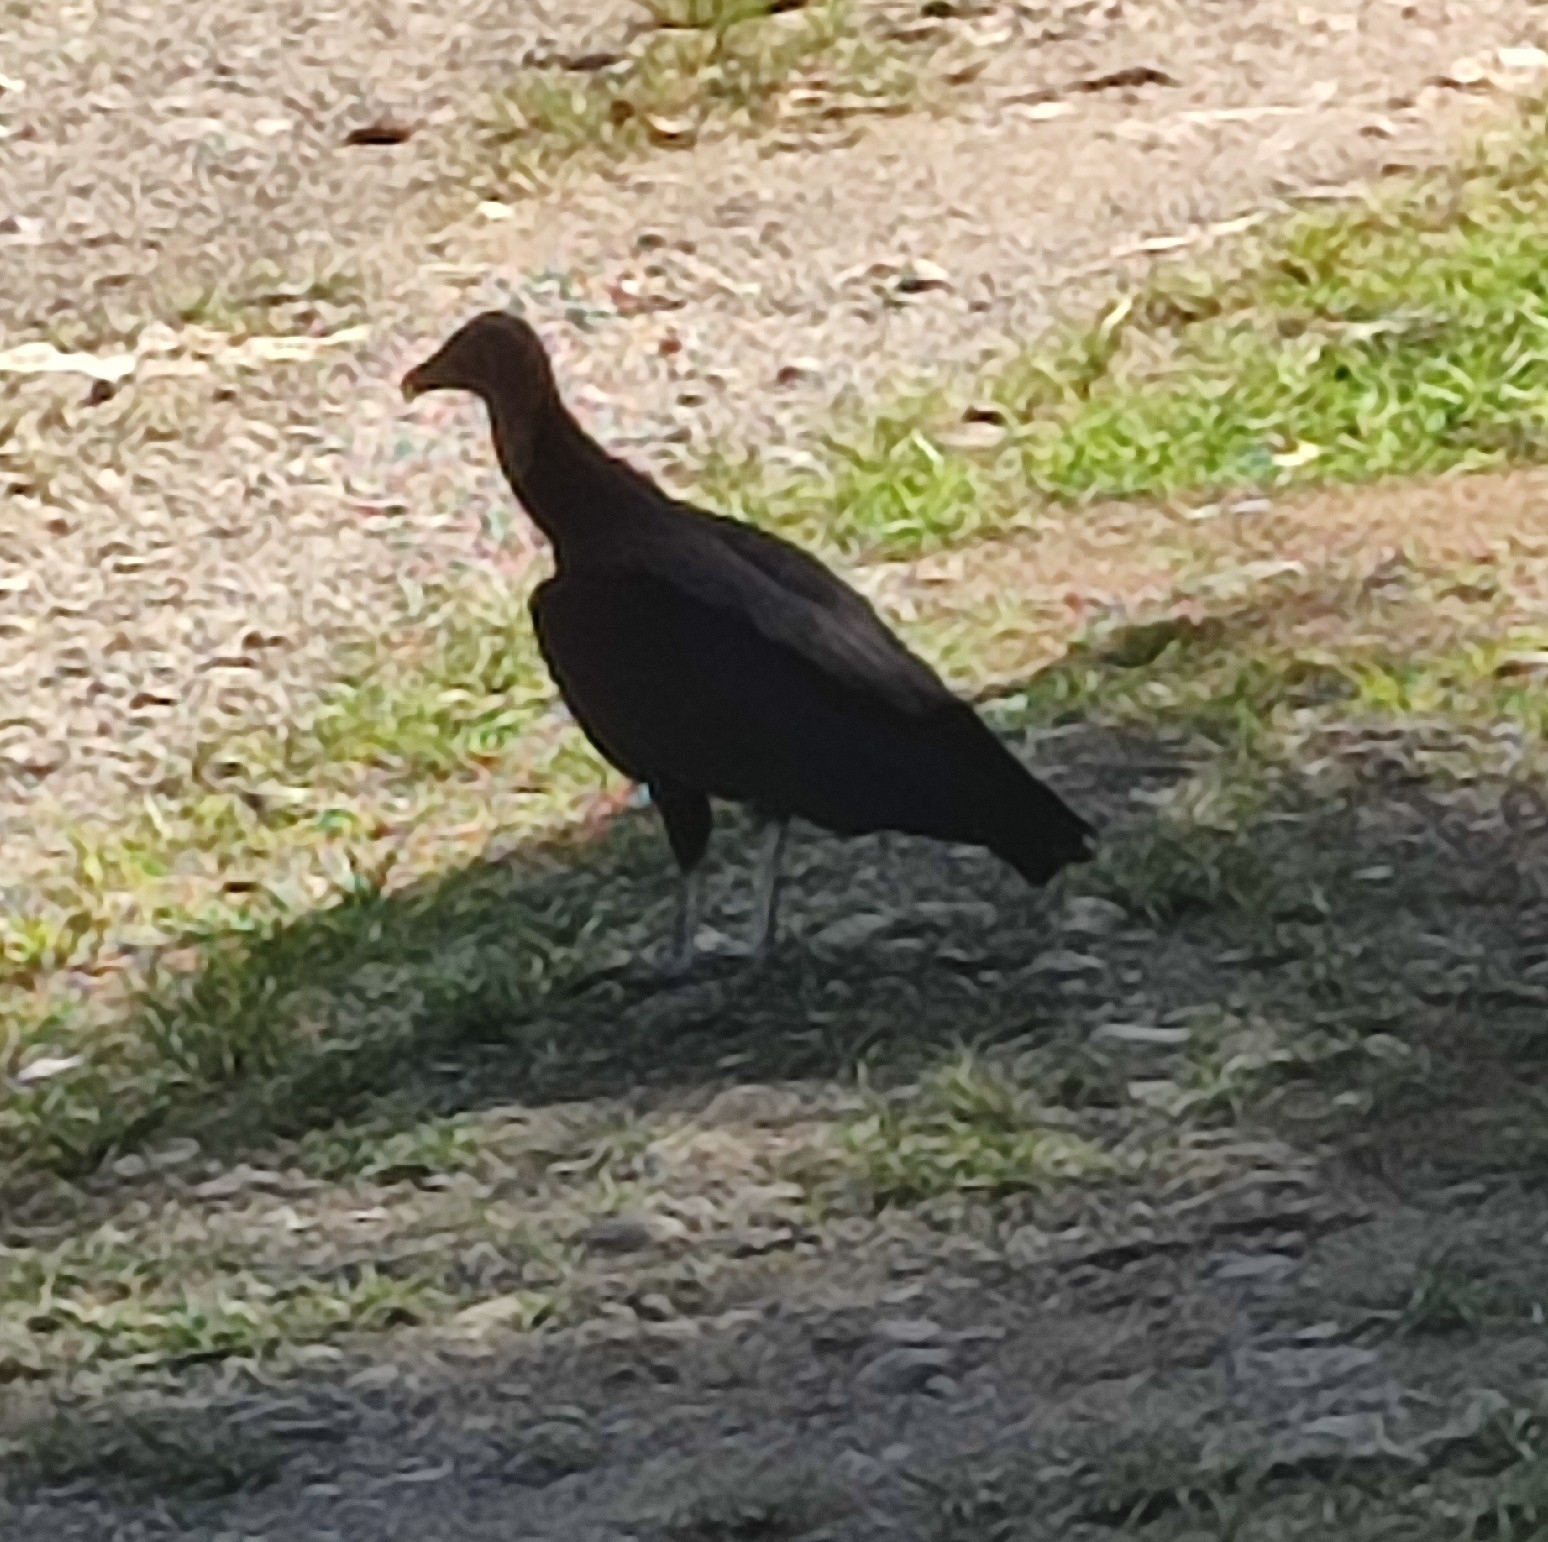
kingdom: Animalia
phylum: Chordata
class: Aves
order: Accipitriformes
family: Cathartidae
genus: Coragyps
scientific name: Coragyps atratus
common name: Black vulture
